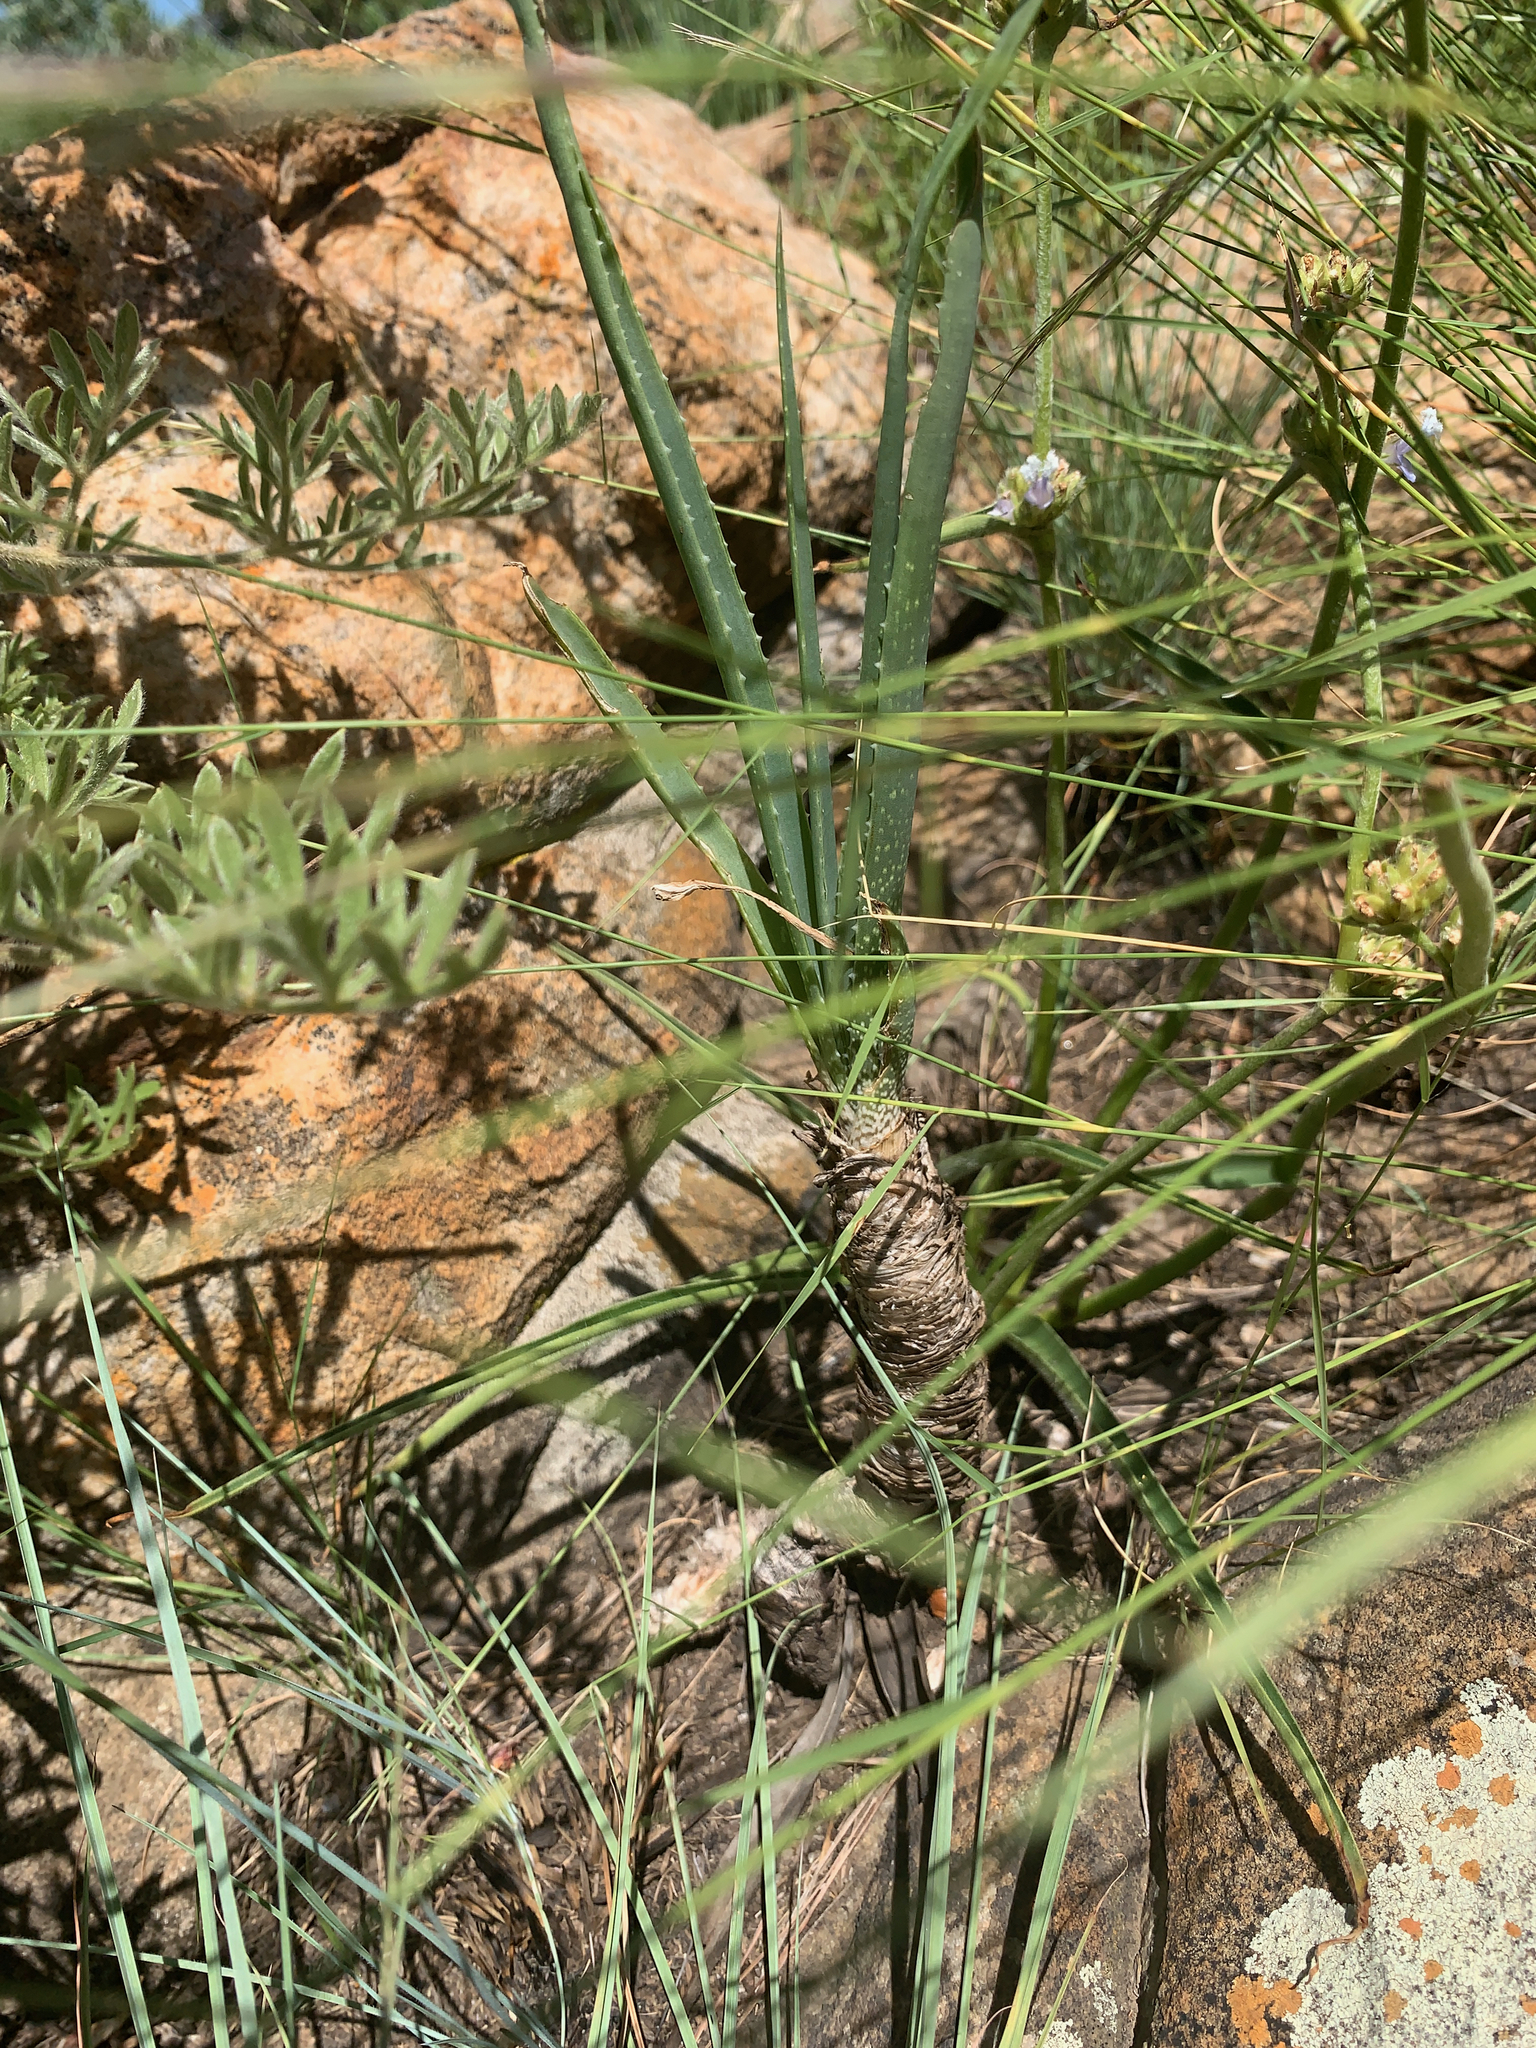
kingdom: Plantae
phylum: Tracheophyta
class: Liliopsida
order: Asparagales
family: Asphodelaceae
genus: Aloe
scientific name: Aloe verecunda
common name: Grass aloe
